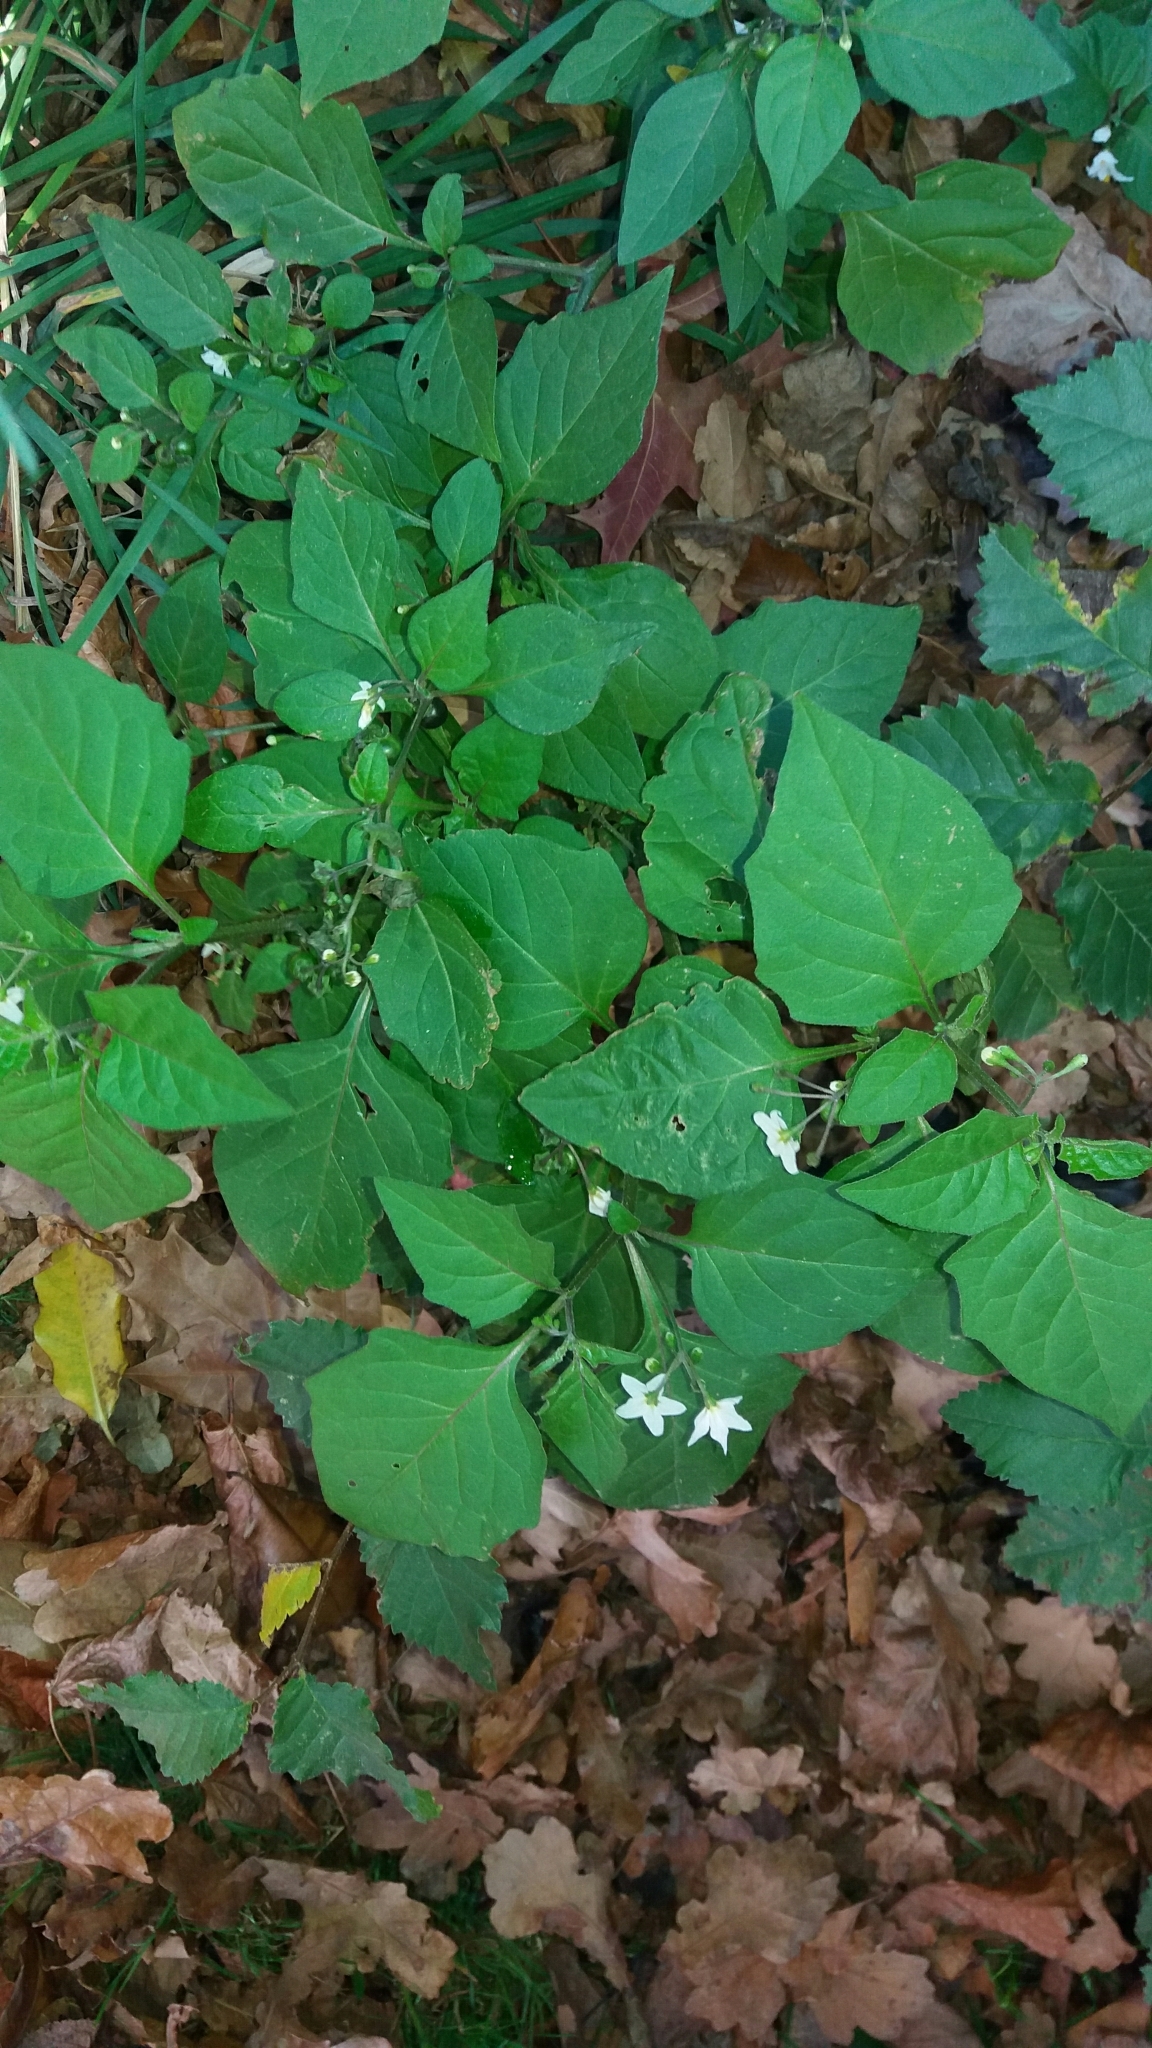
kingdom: Plantae
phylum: Tracheophyta
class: Magnoliopsida
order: Solanales
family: Solanaceae
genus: Solanum
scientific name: Solanum nigrum
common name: Black nightshade
